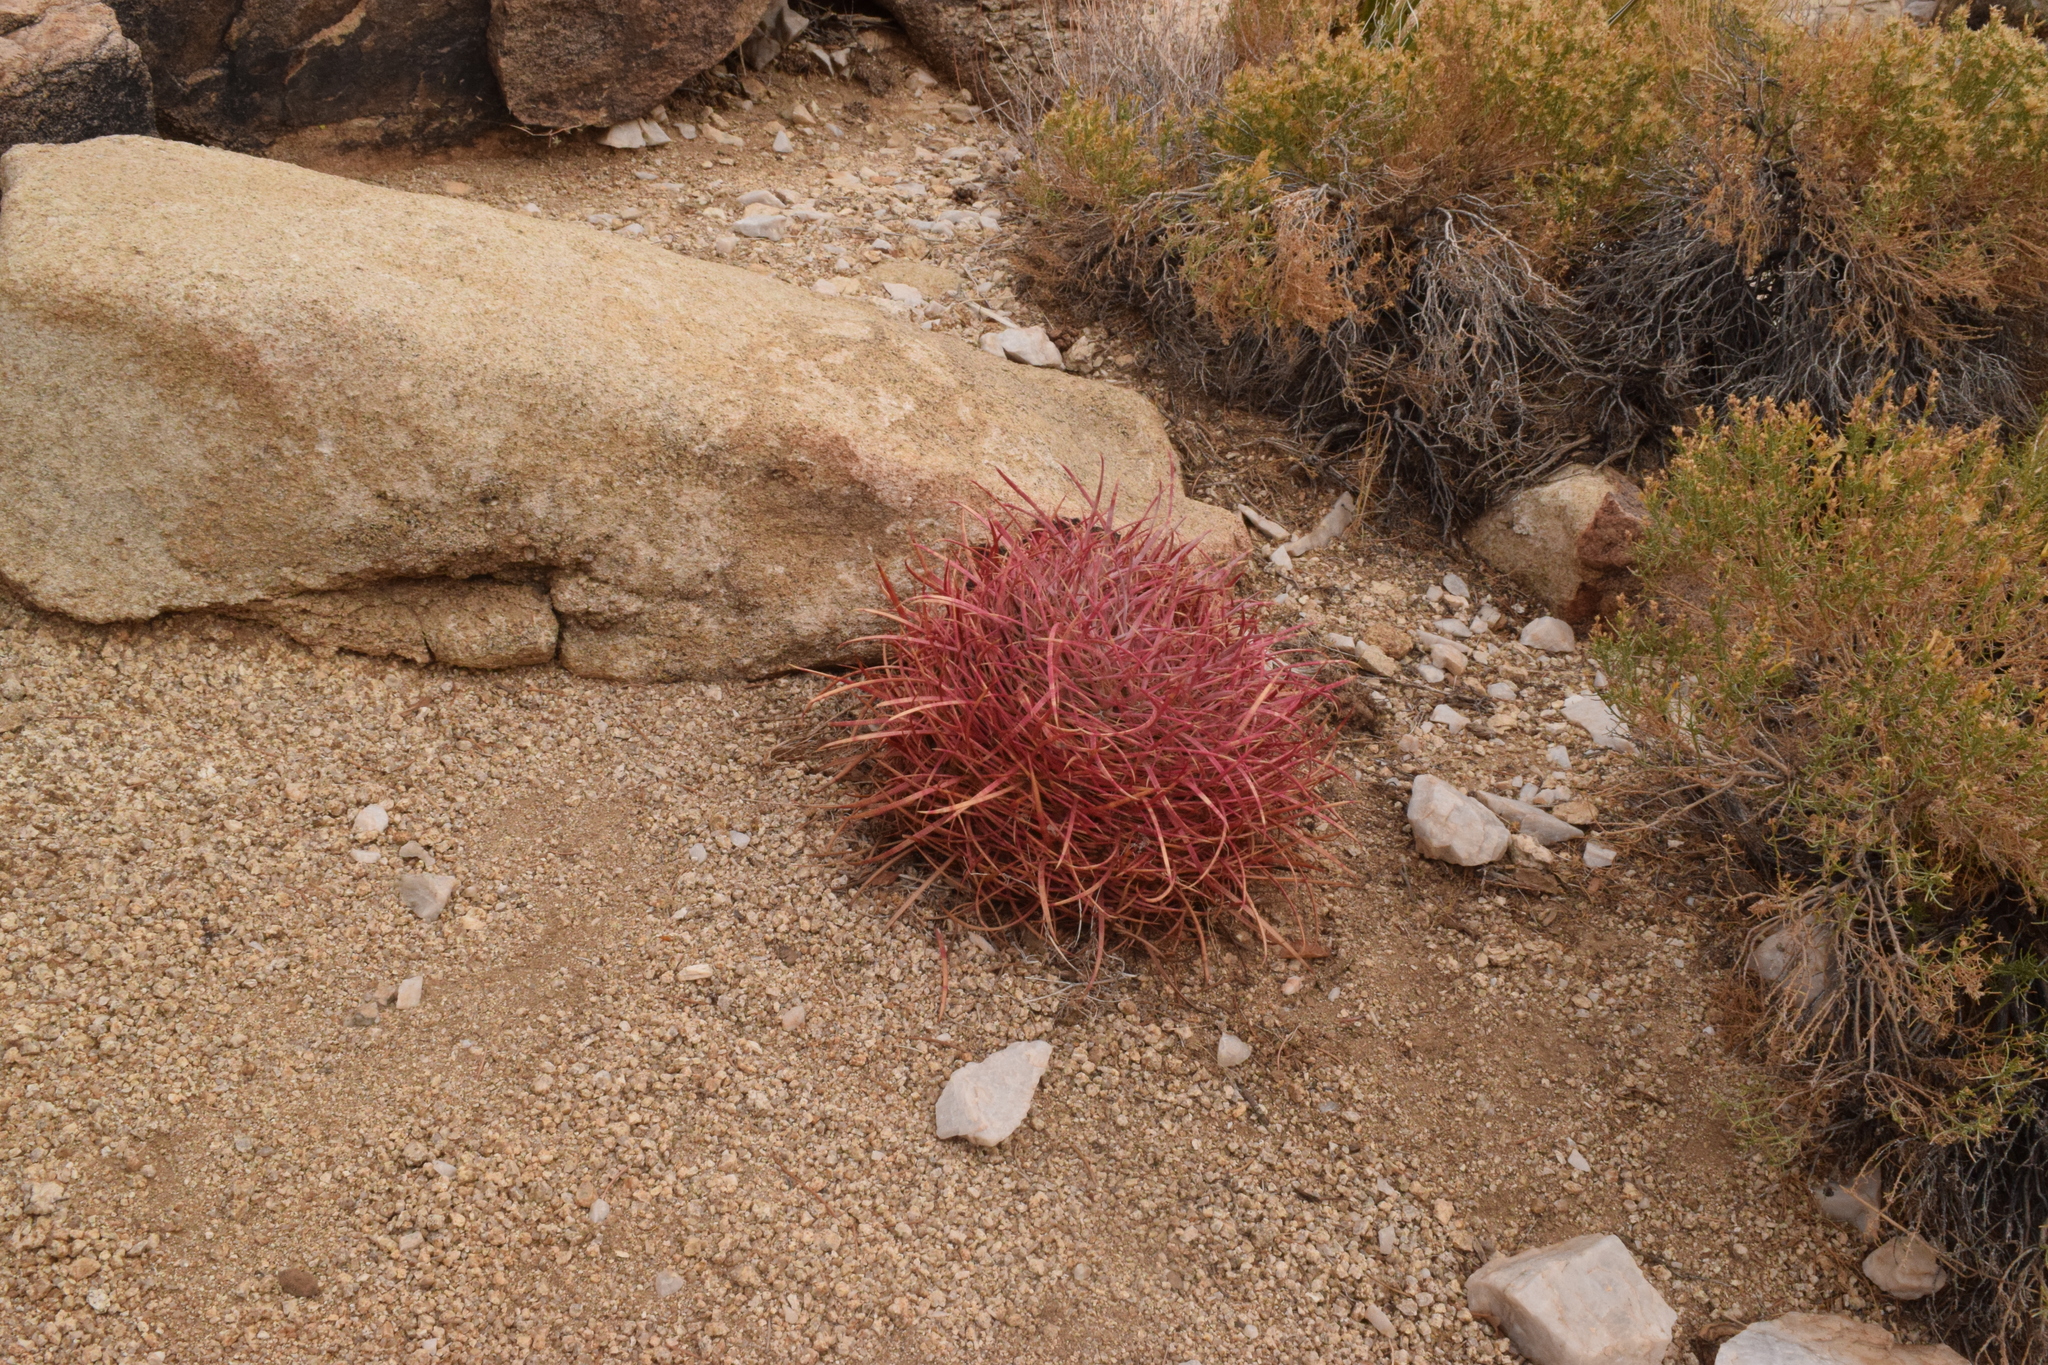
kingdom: Plantae
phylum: Tracheophyta
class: Magnoliopsida
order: Caryophyllales
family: Cactaceae
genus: Ferocactus
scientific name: Ferocactus cylindraceus
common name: California barrel cactus
